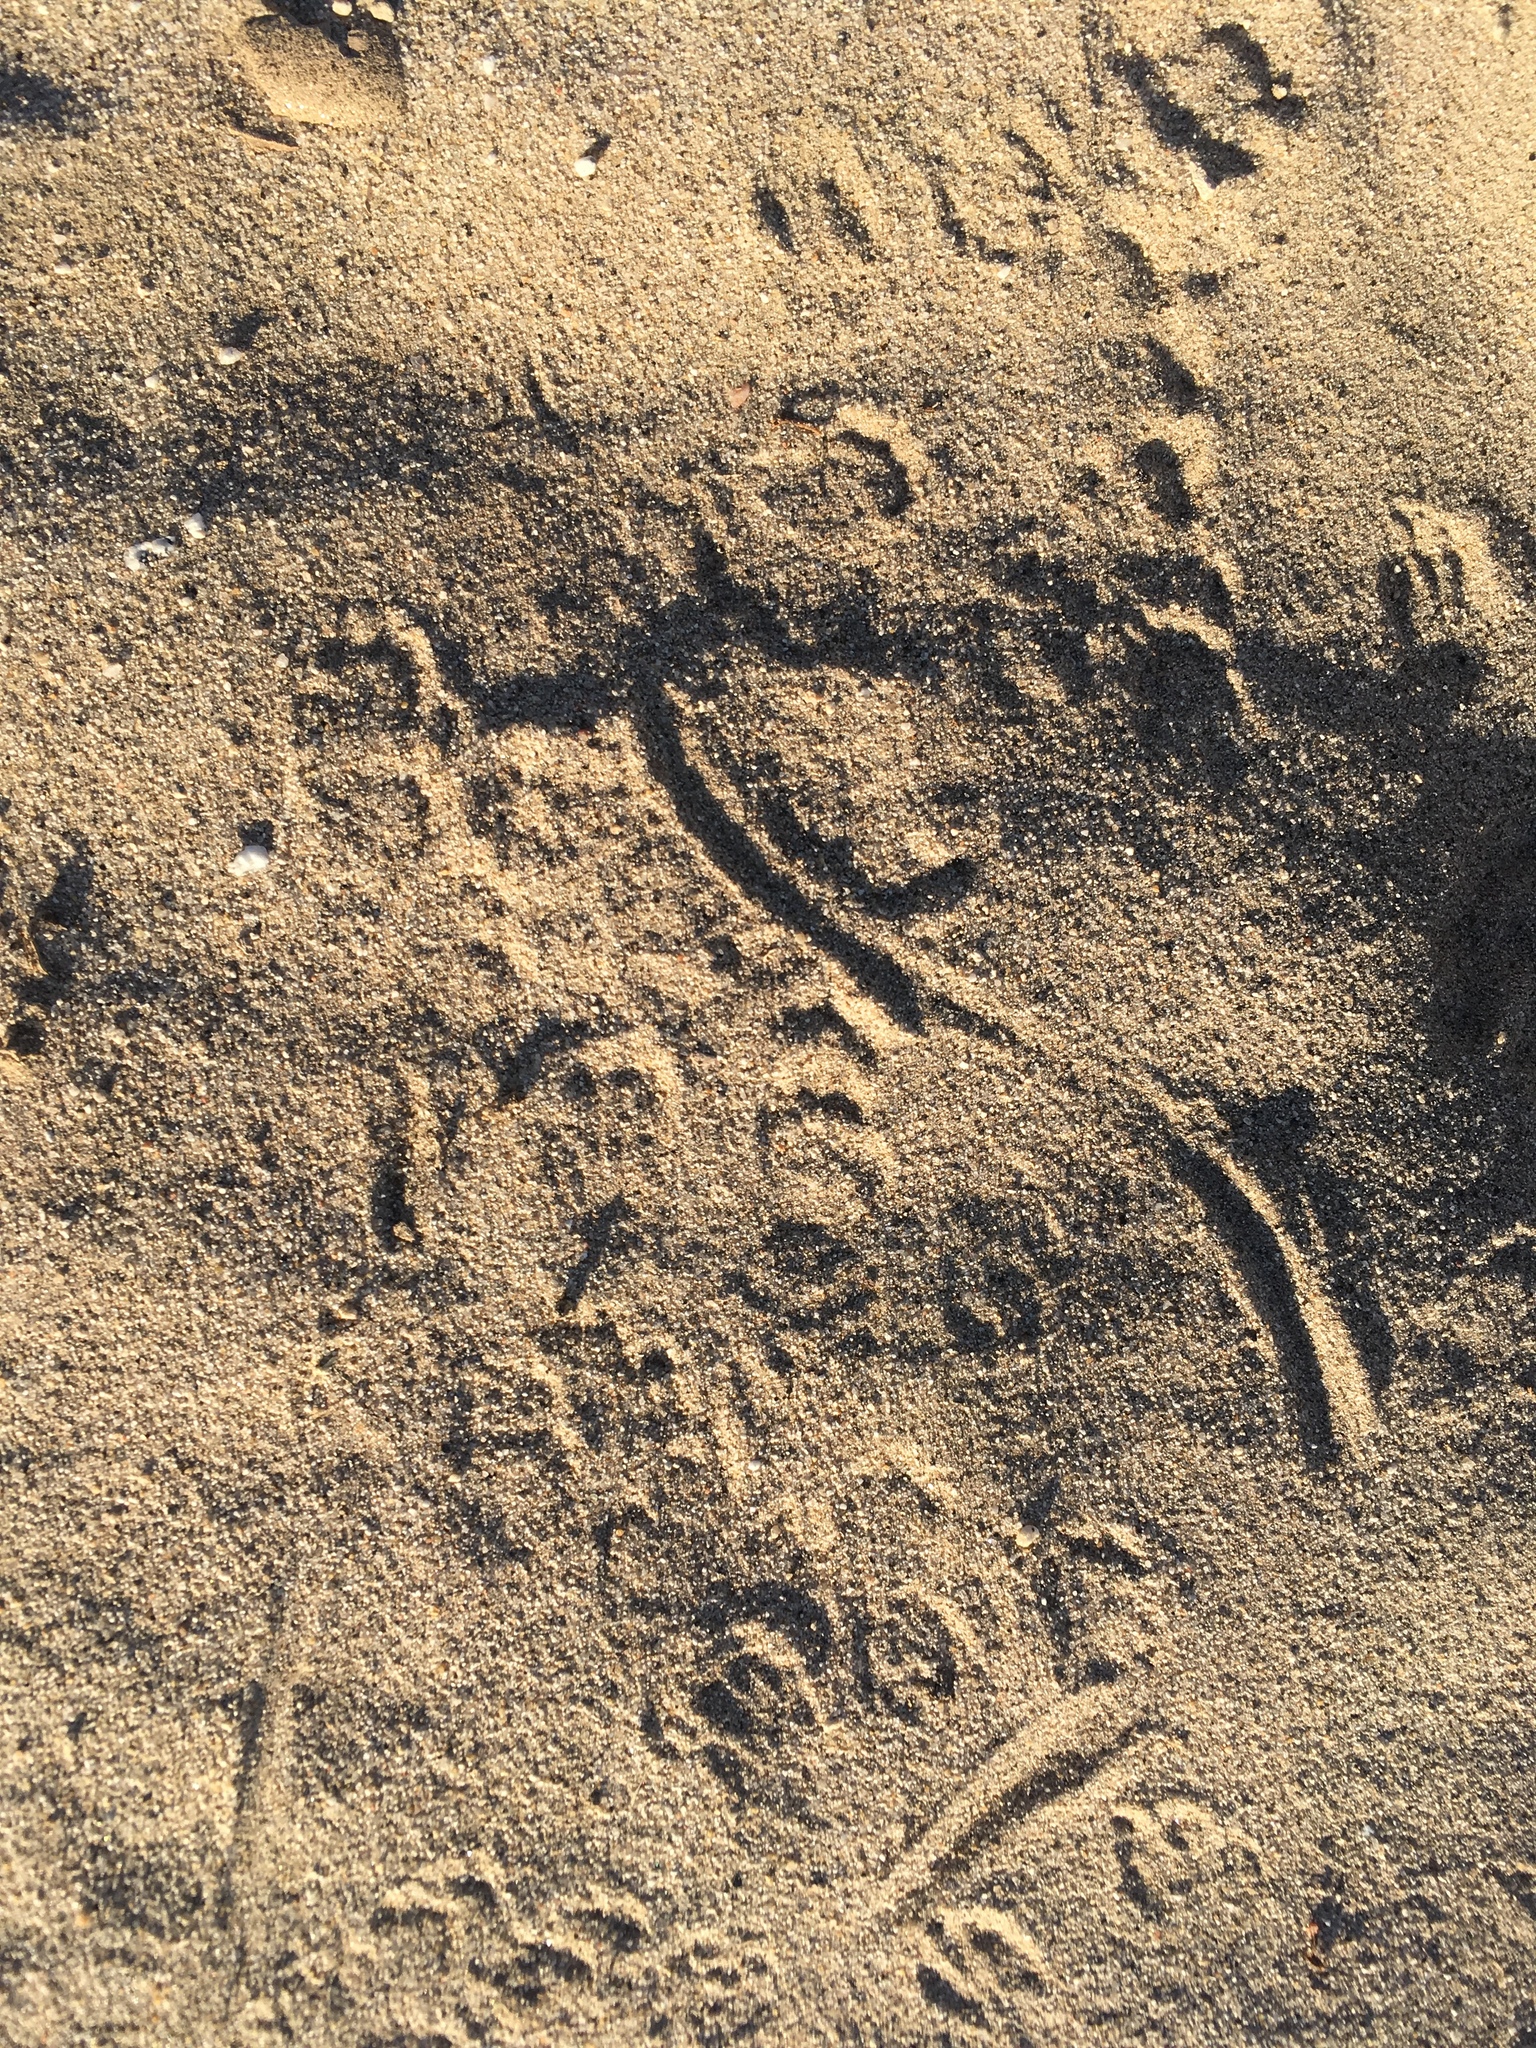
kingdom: Animalia
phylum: Chordata
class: Mammalia
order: Rodentia
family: Heteromyidae
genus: Dipodomys
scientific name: Dipodomys deserti
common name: Desert kangaroo rat
